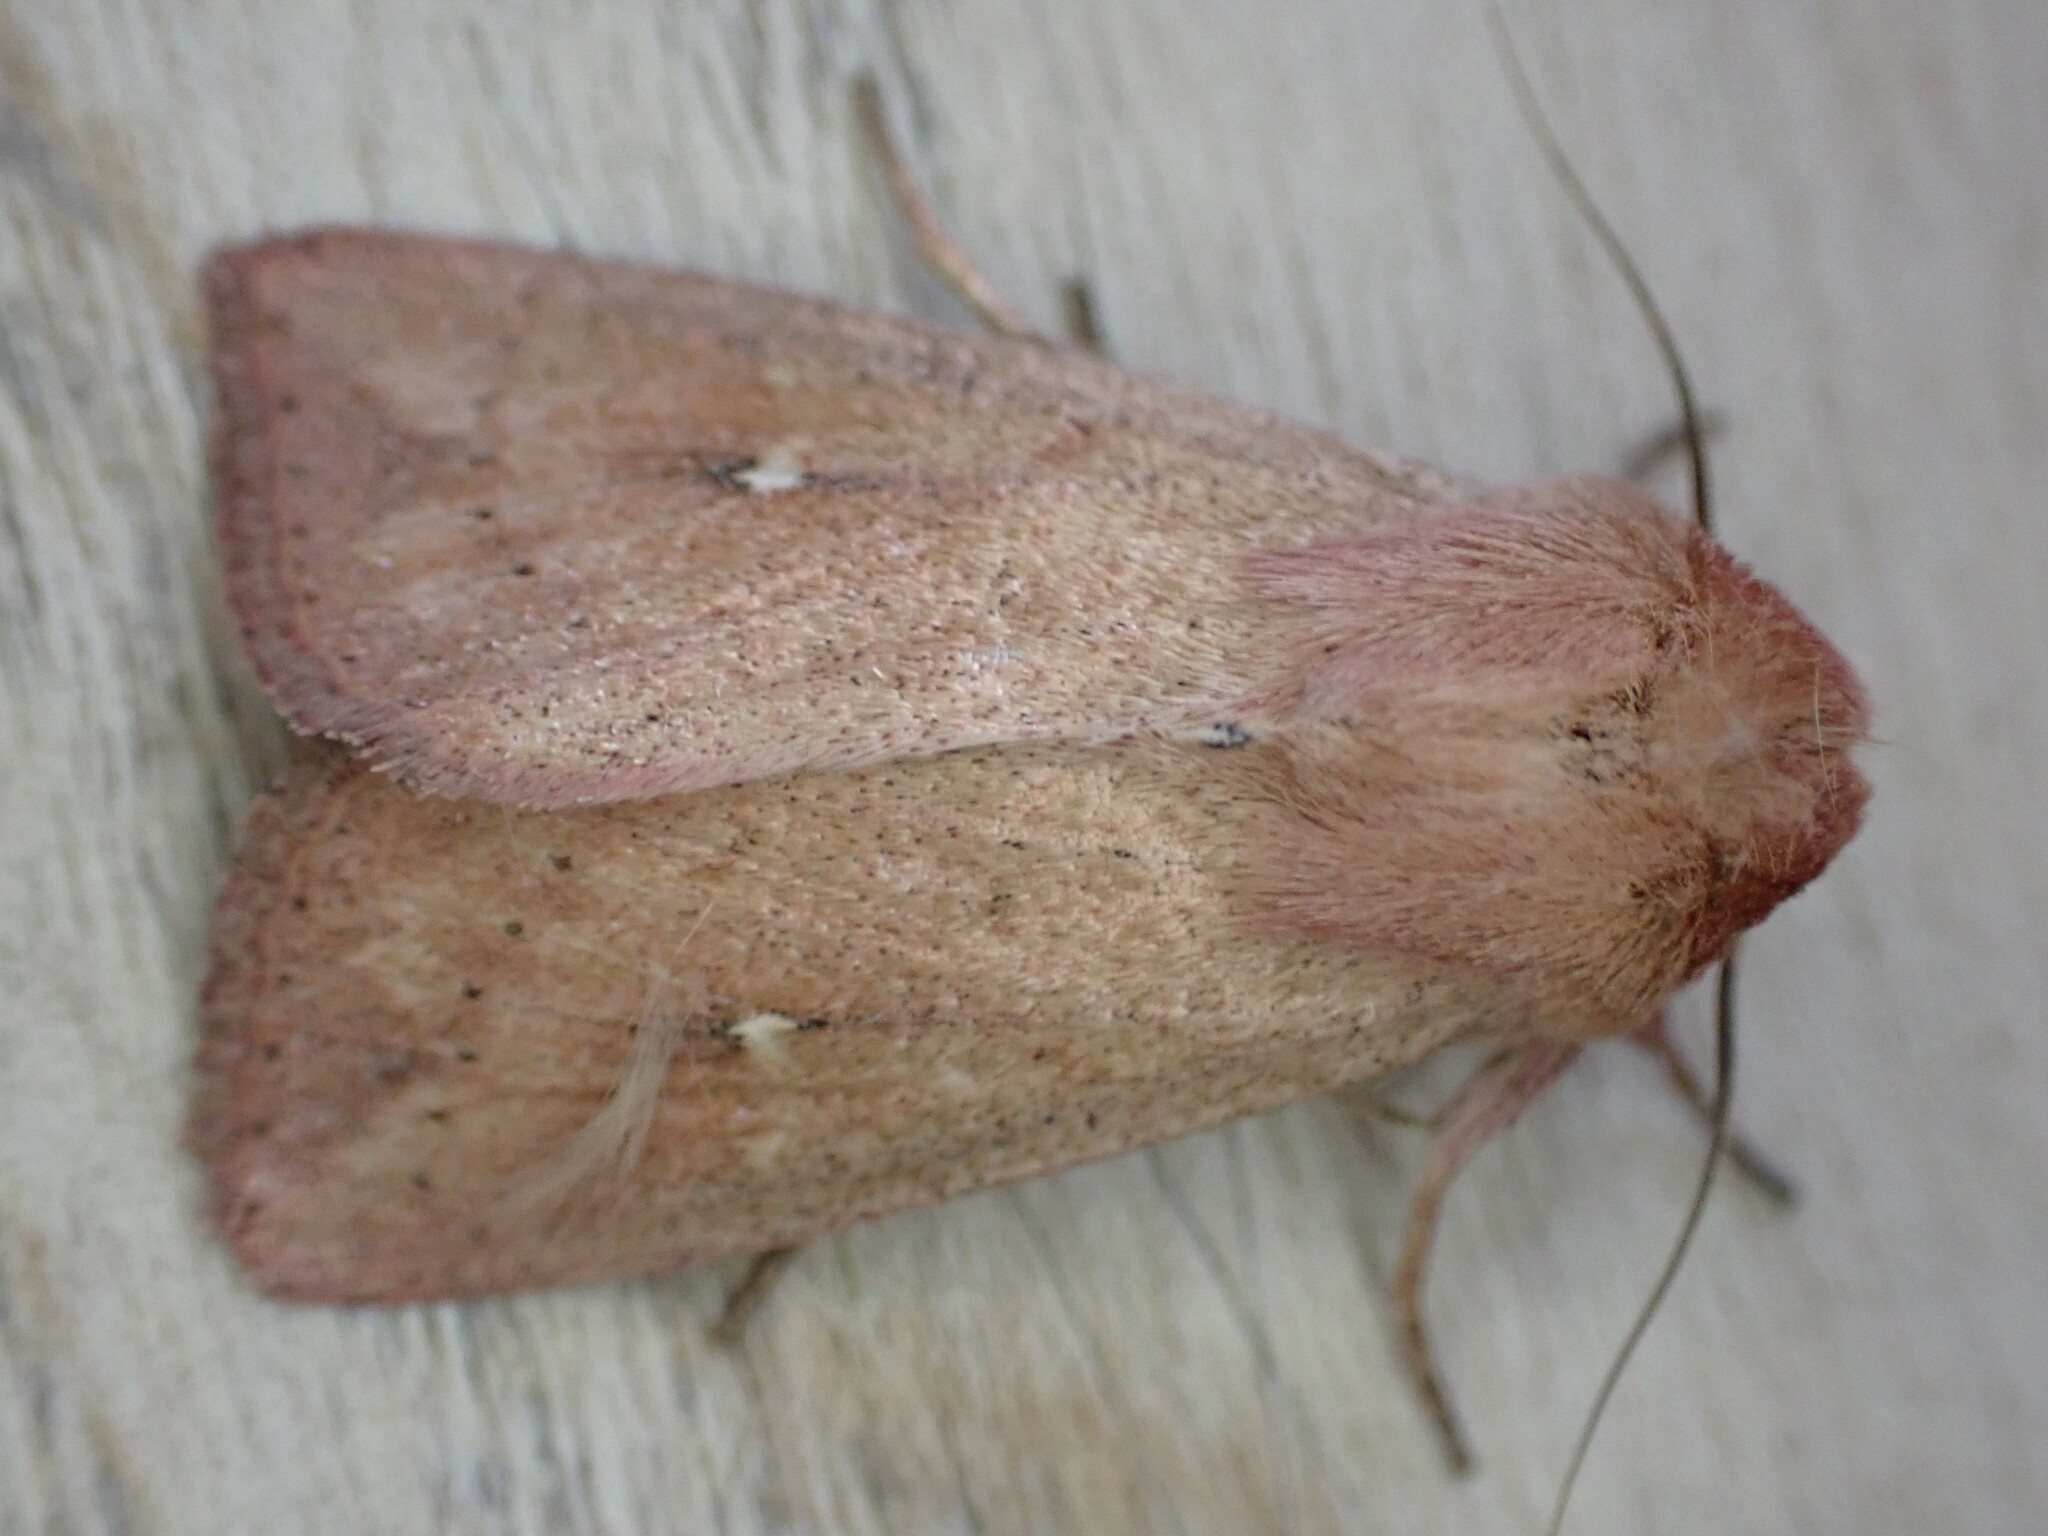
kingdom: Animalia
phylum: Arthropoda
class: Insecta
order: Lepidoptera
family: Noctuidae
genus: Mythimna
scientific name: Mythimna ferrago
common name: Clay
